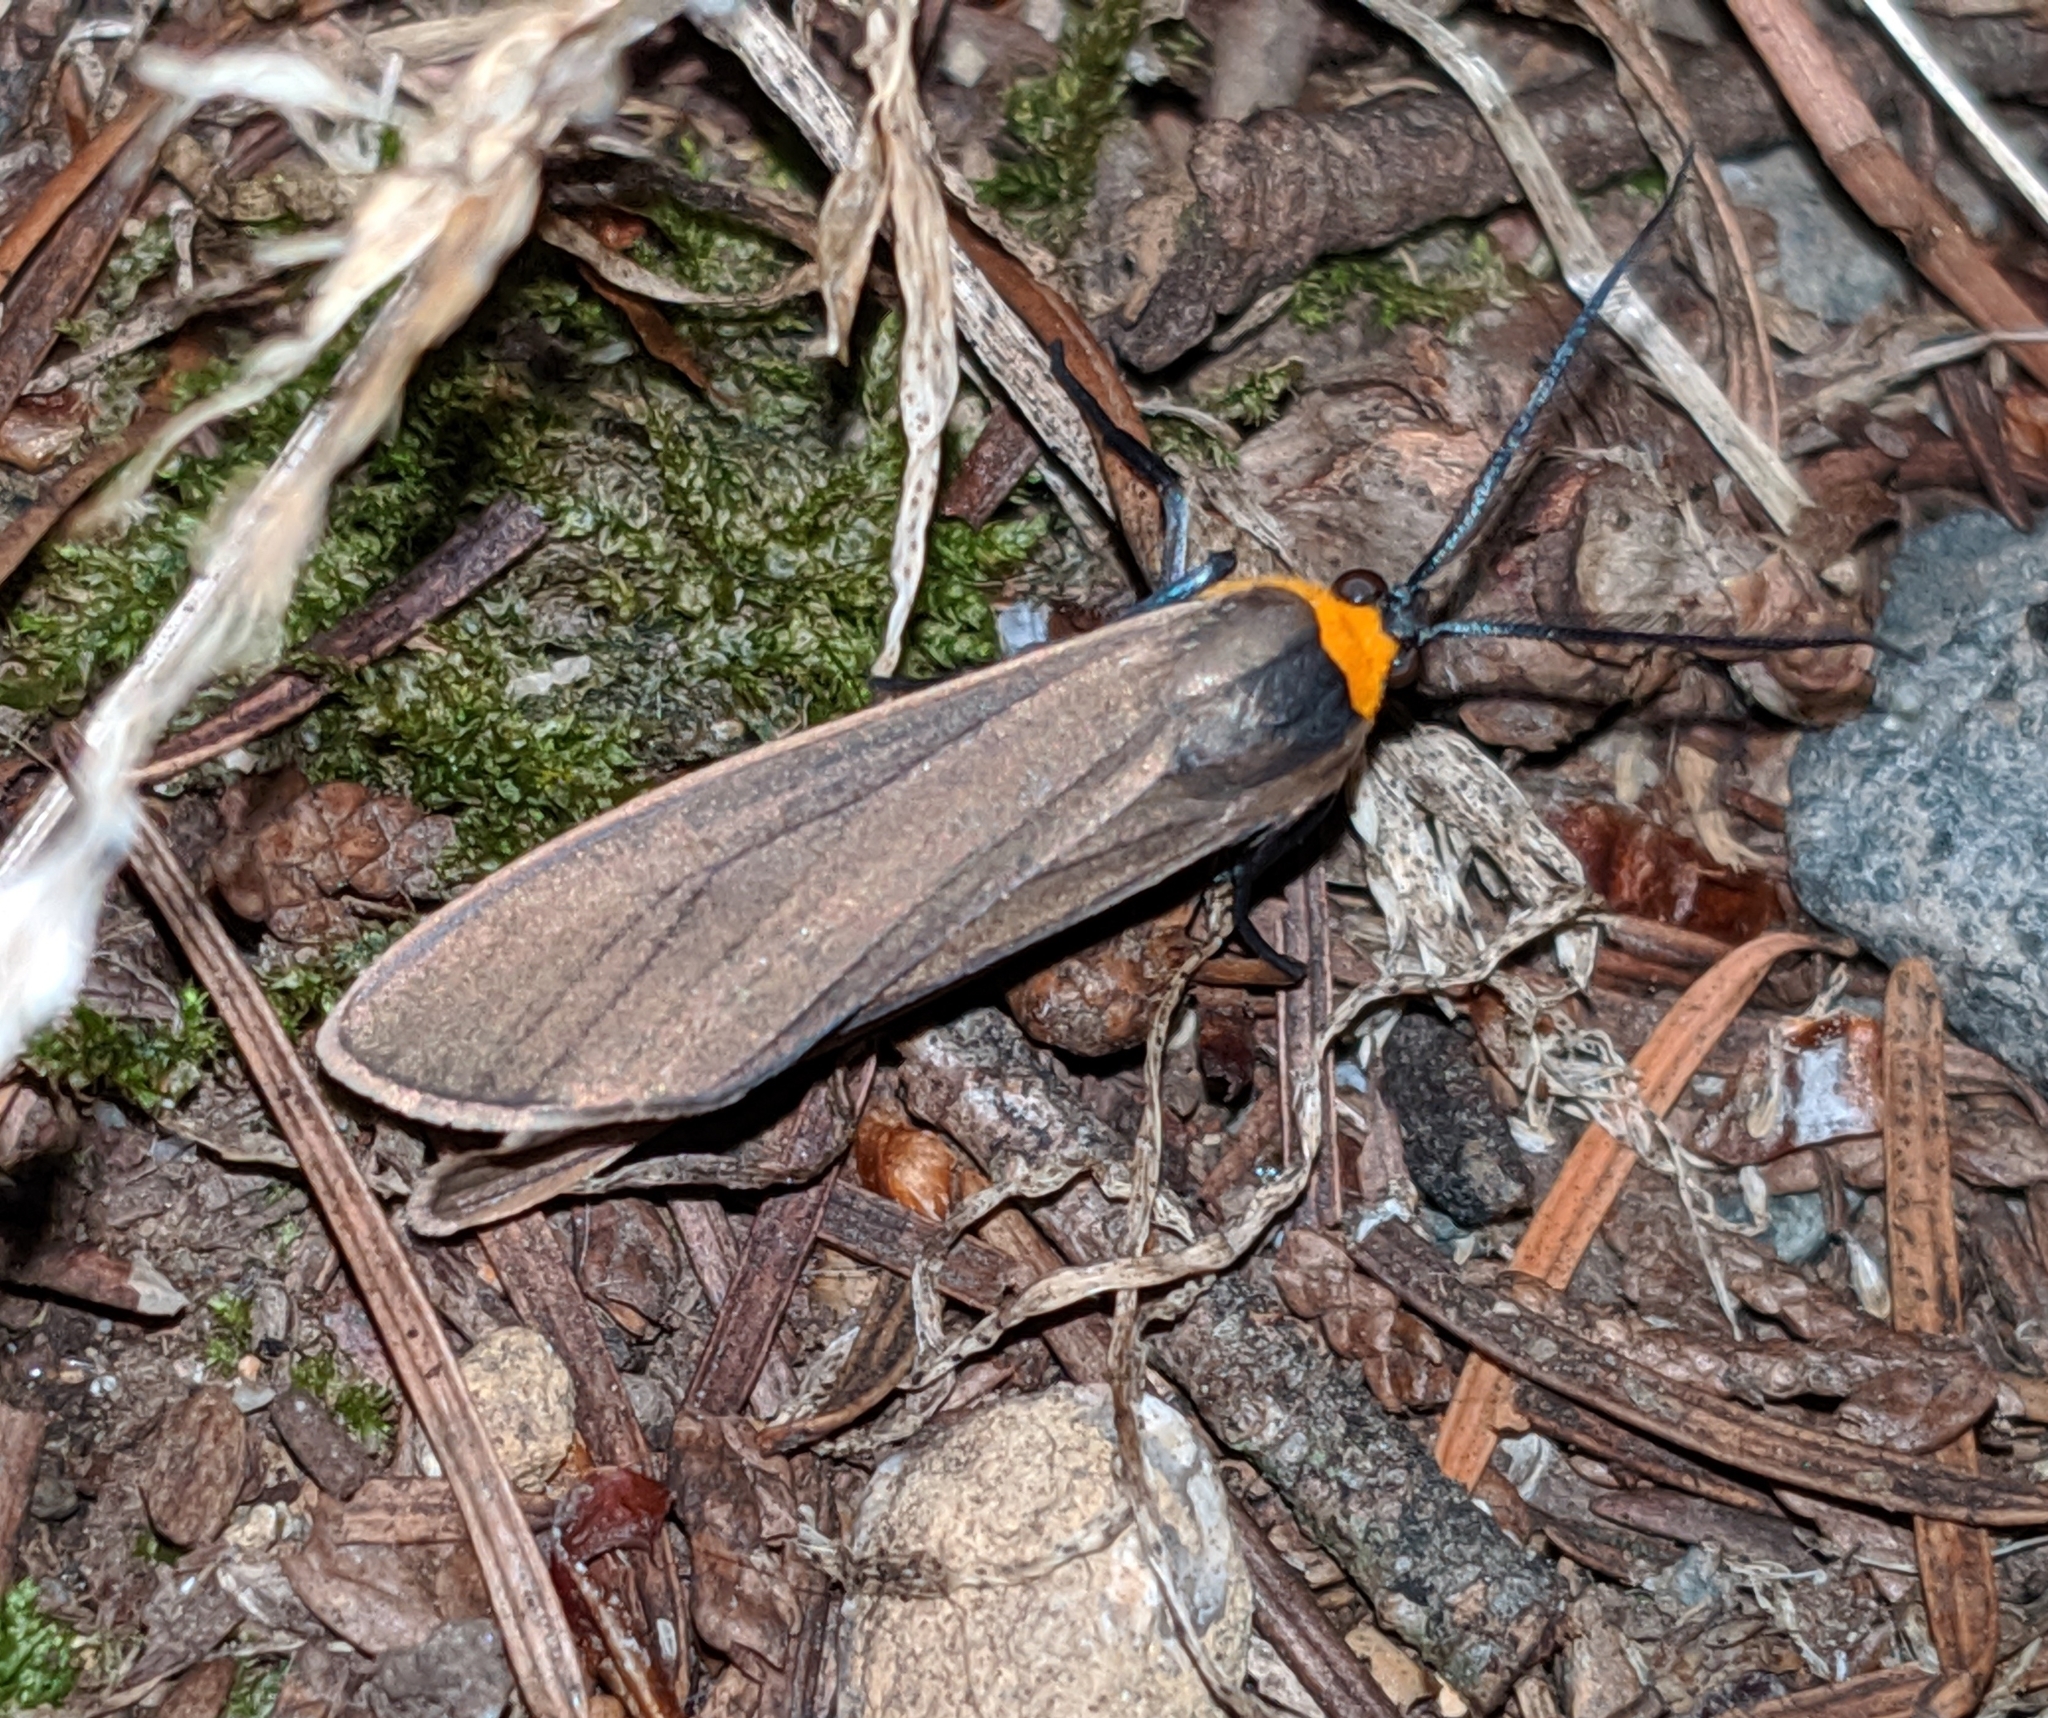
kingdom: Animalia
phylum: Arthropoda
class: Insecta
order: Lepidoptera
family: Erebidae
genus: Cisseps
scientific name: Cisseps fulvicollis
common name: Yellow-collared scape moth
